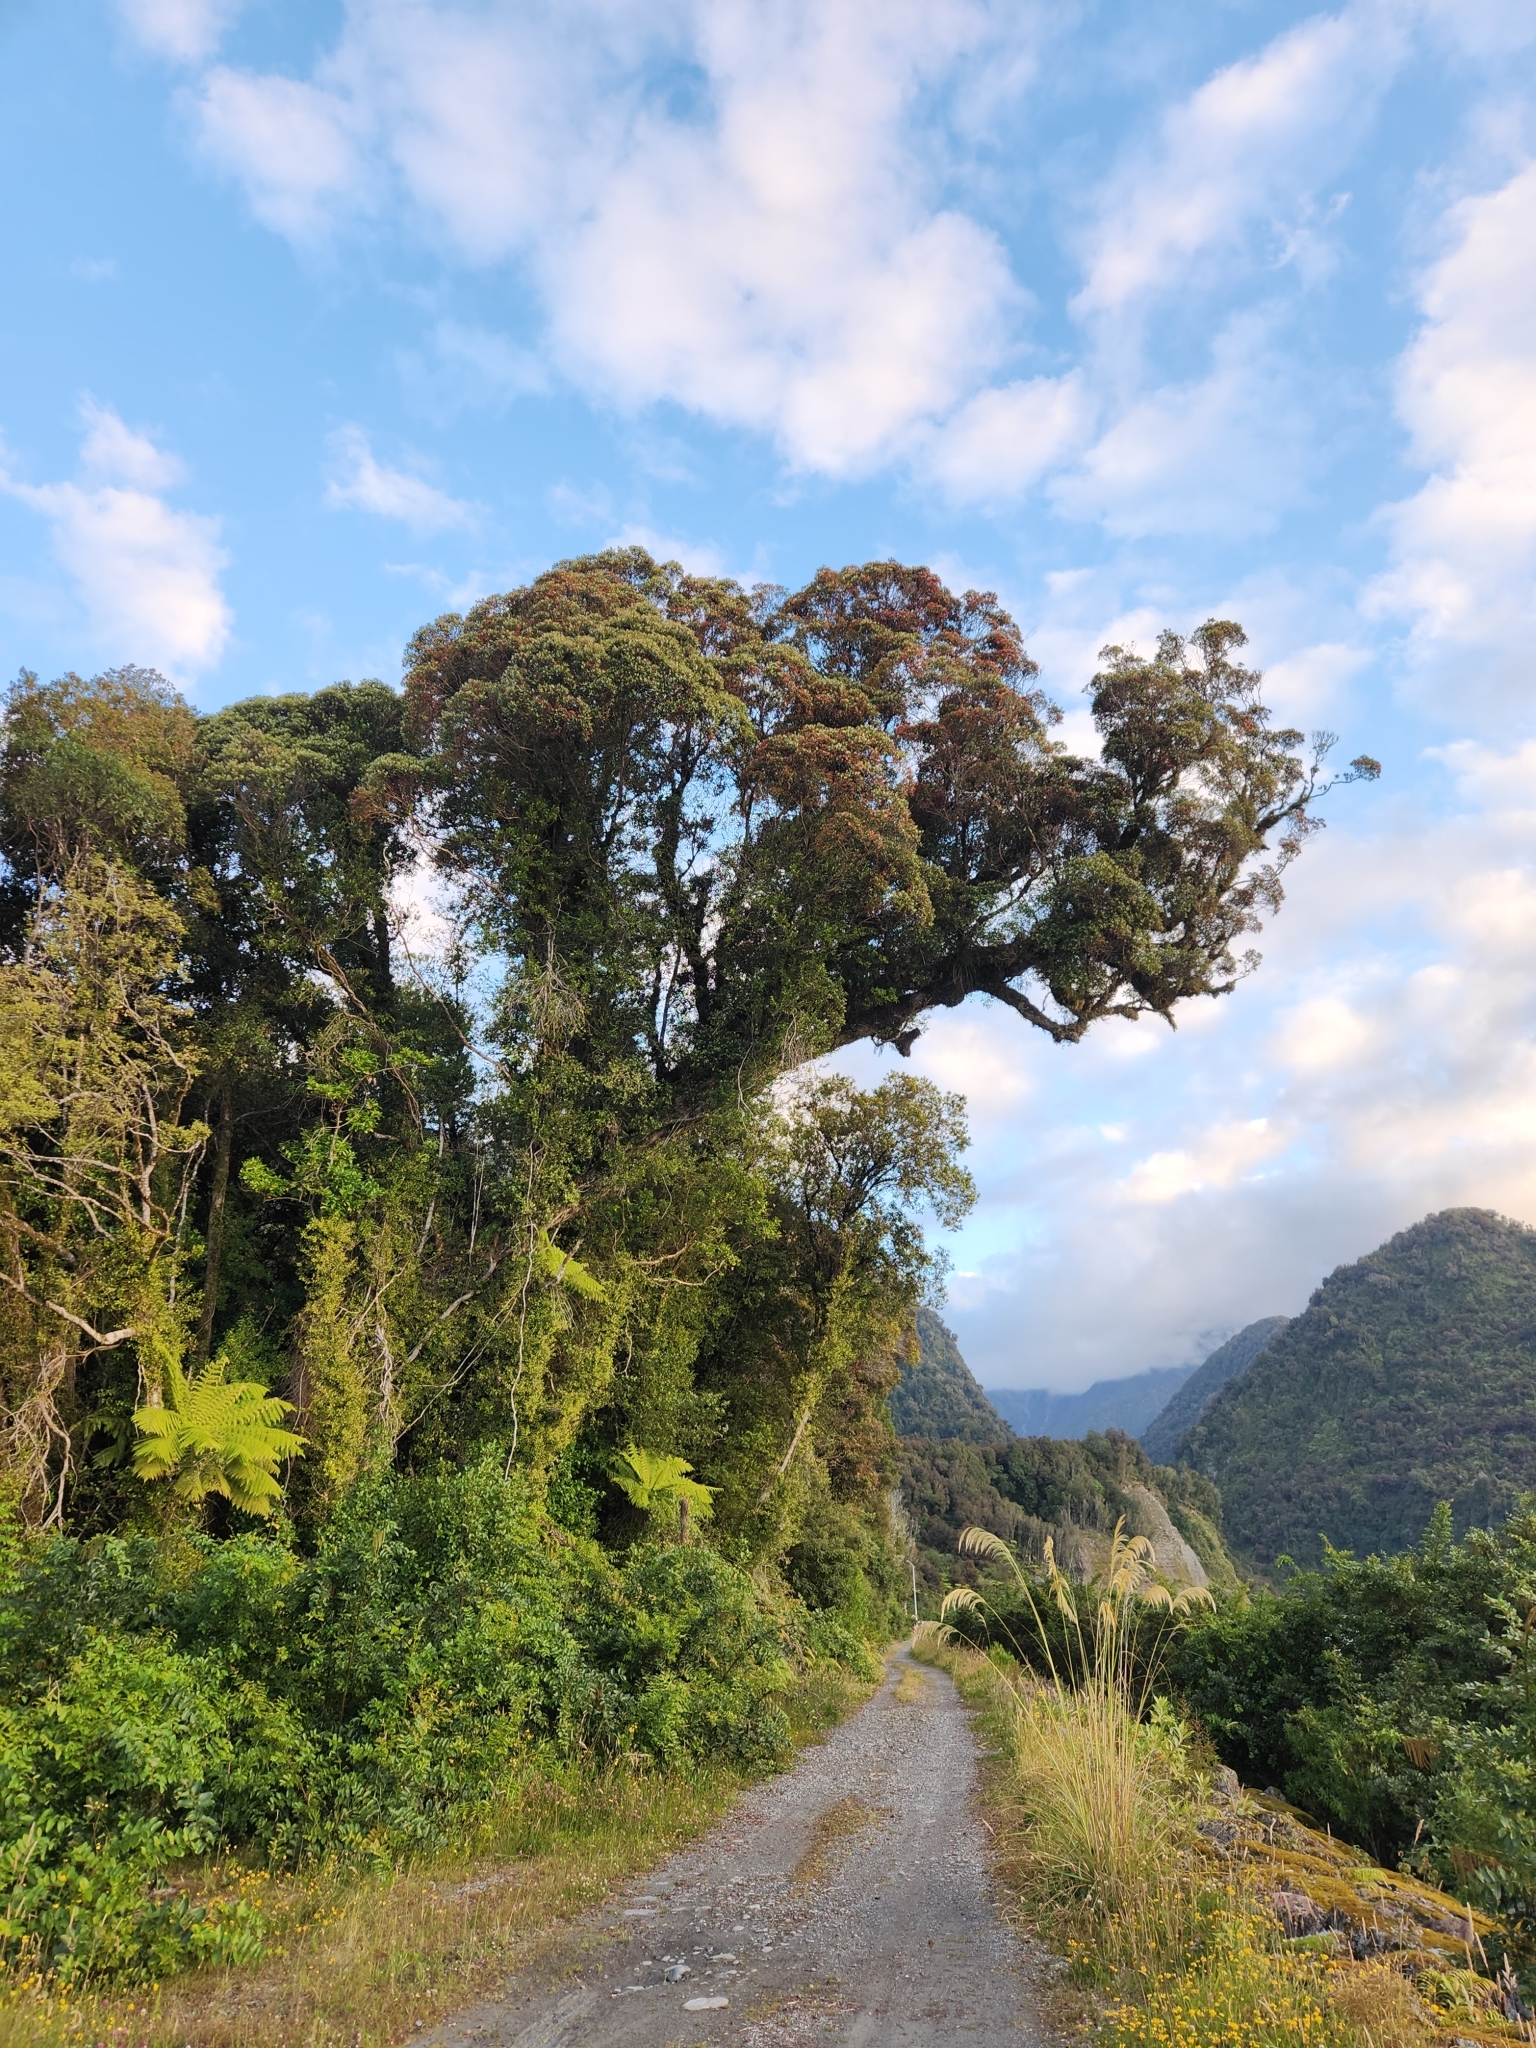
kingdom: Plantae
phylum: Tracheophyta
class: Magnoliopsida
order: Myrtales
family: Myrtaceae
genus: Metrosideros
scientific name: Metrosideros umbellata
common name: Southern rata
